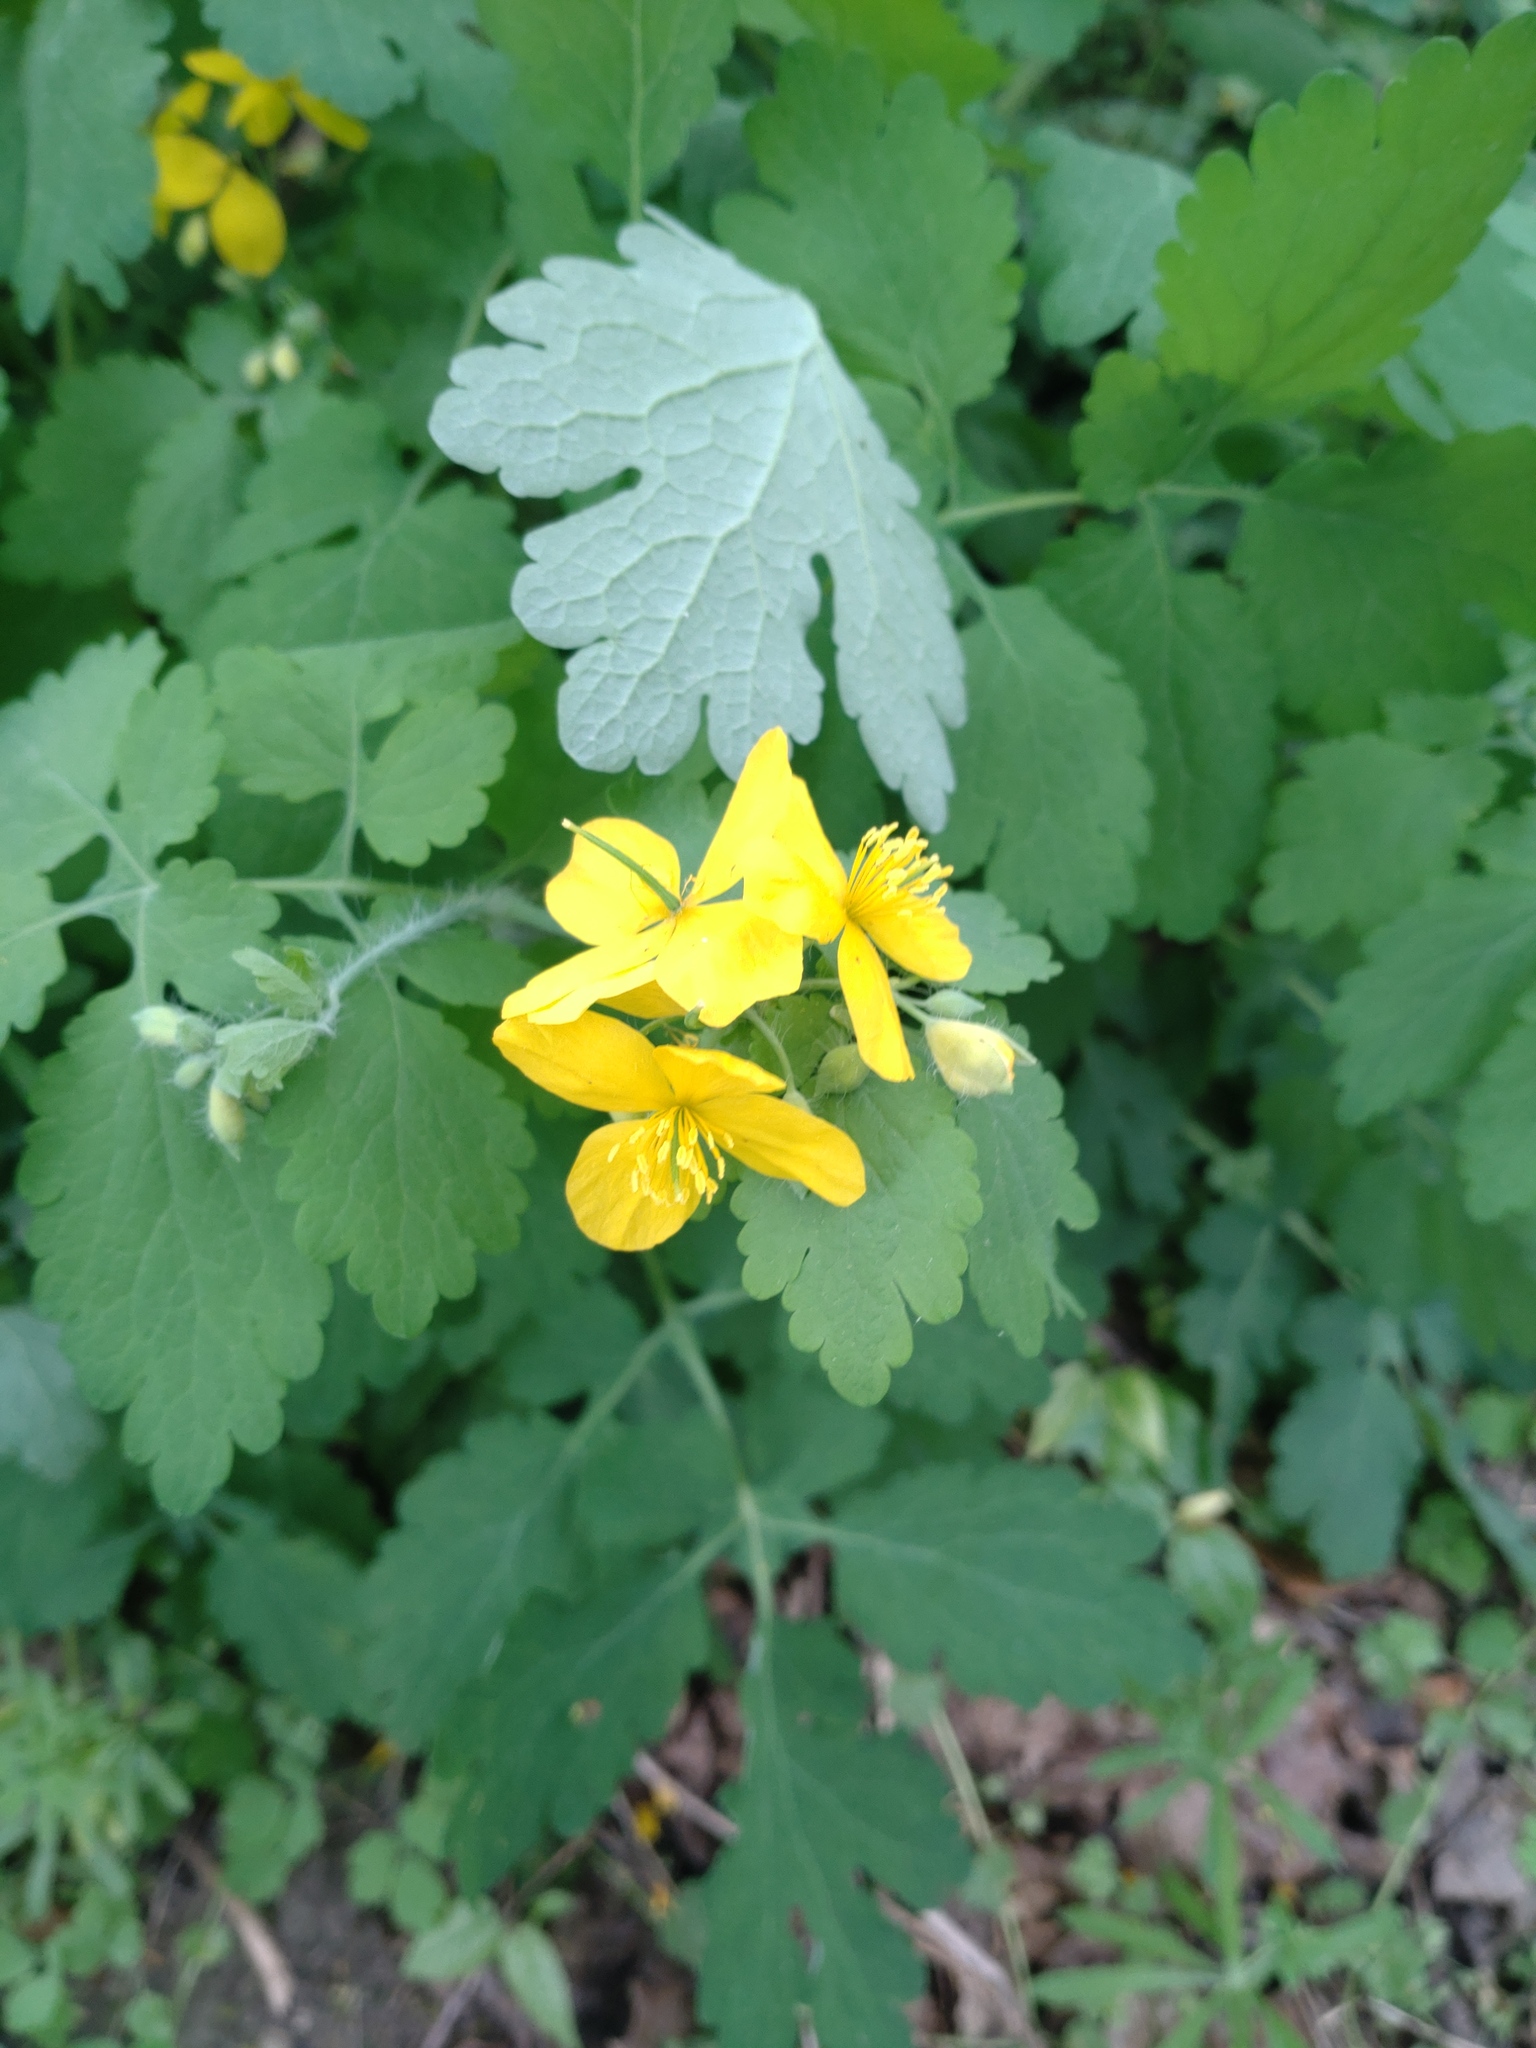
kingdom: Plantae
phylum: Tracheophyta
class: Magnoliopsida
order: Ranunculales
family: Papaveraceae
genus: Chelidonium
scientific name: Chelidonium majus
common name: Greater celandine
